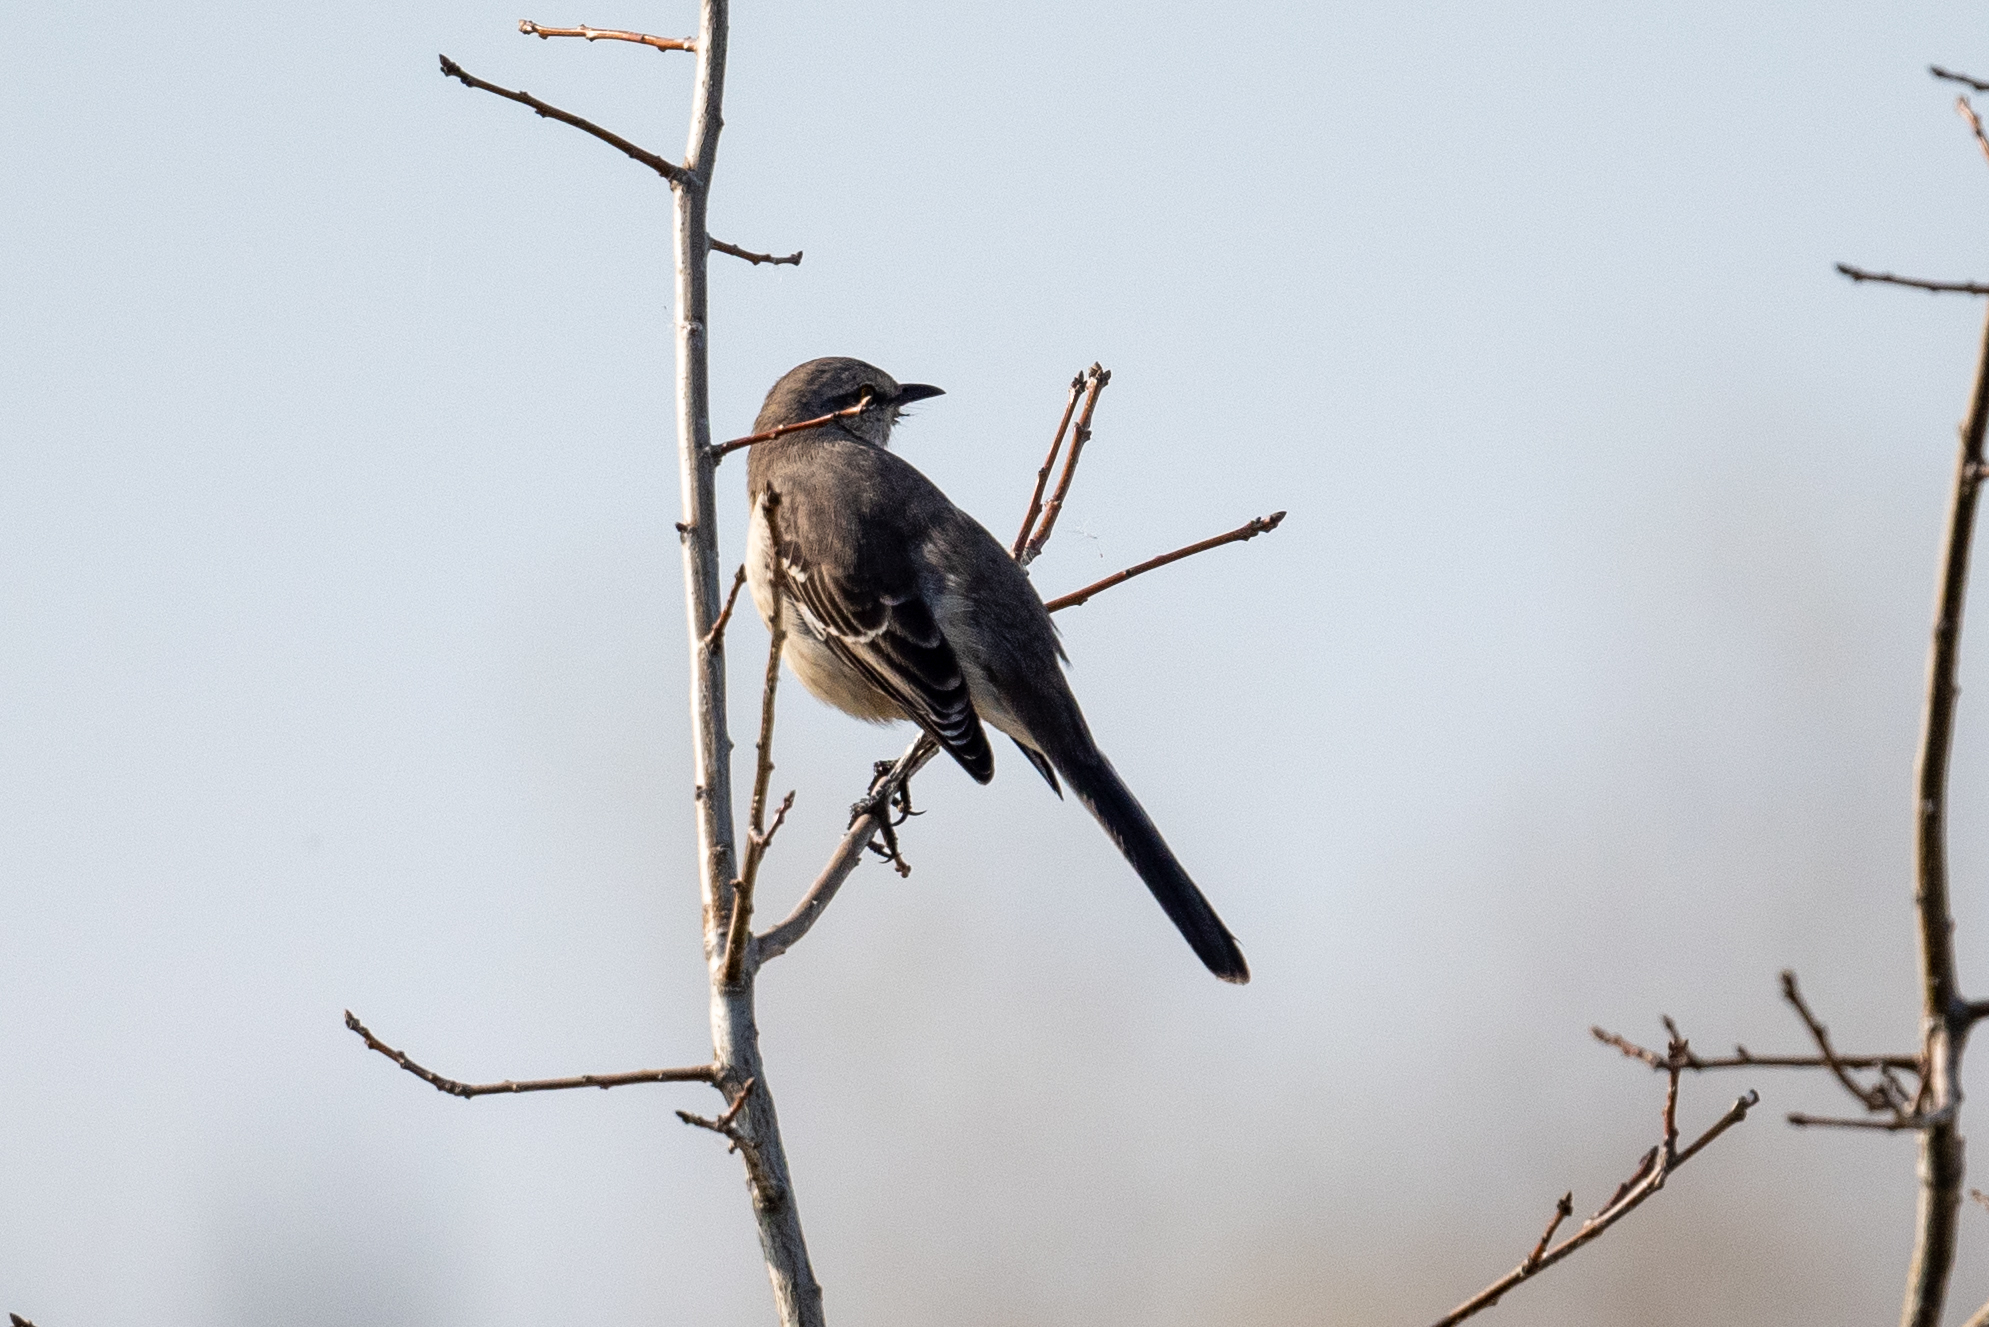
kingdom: Animalia
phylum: Chordata
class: Aves
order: Passeriformes
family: Mimidae
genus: Mimus
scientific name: Mimus polyglottos
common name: Northern mockingbird
